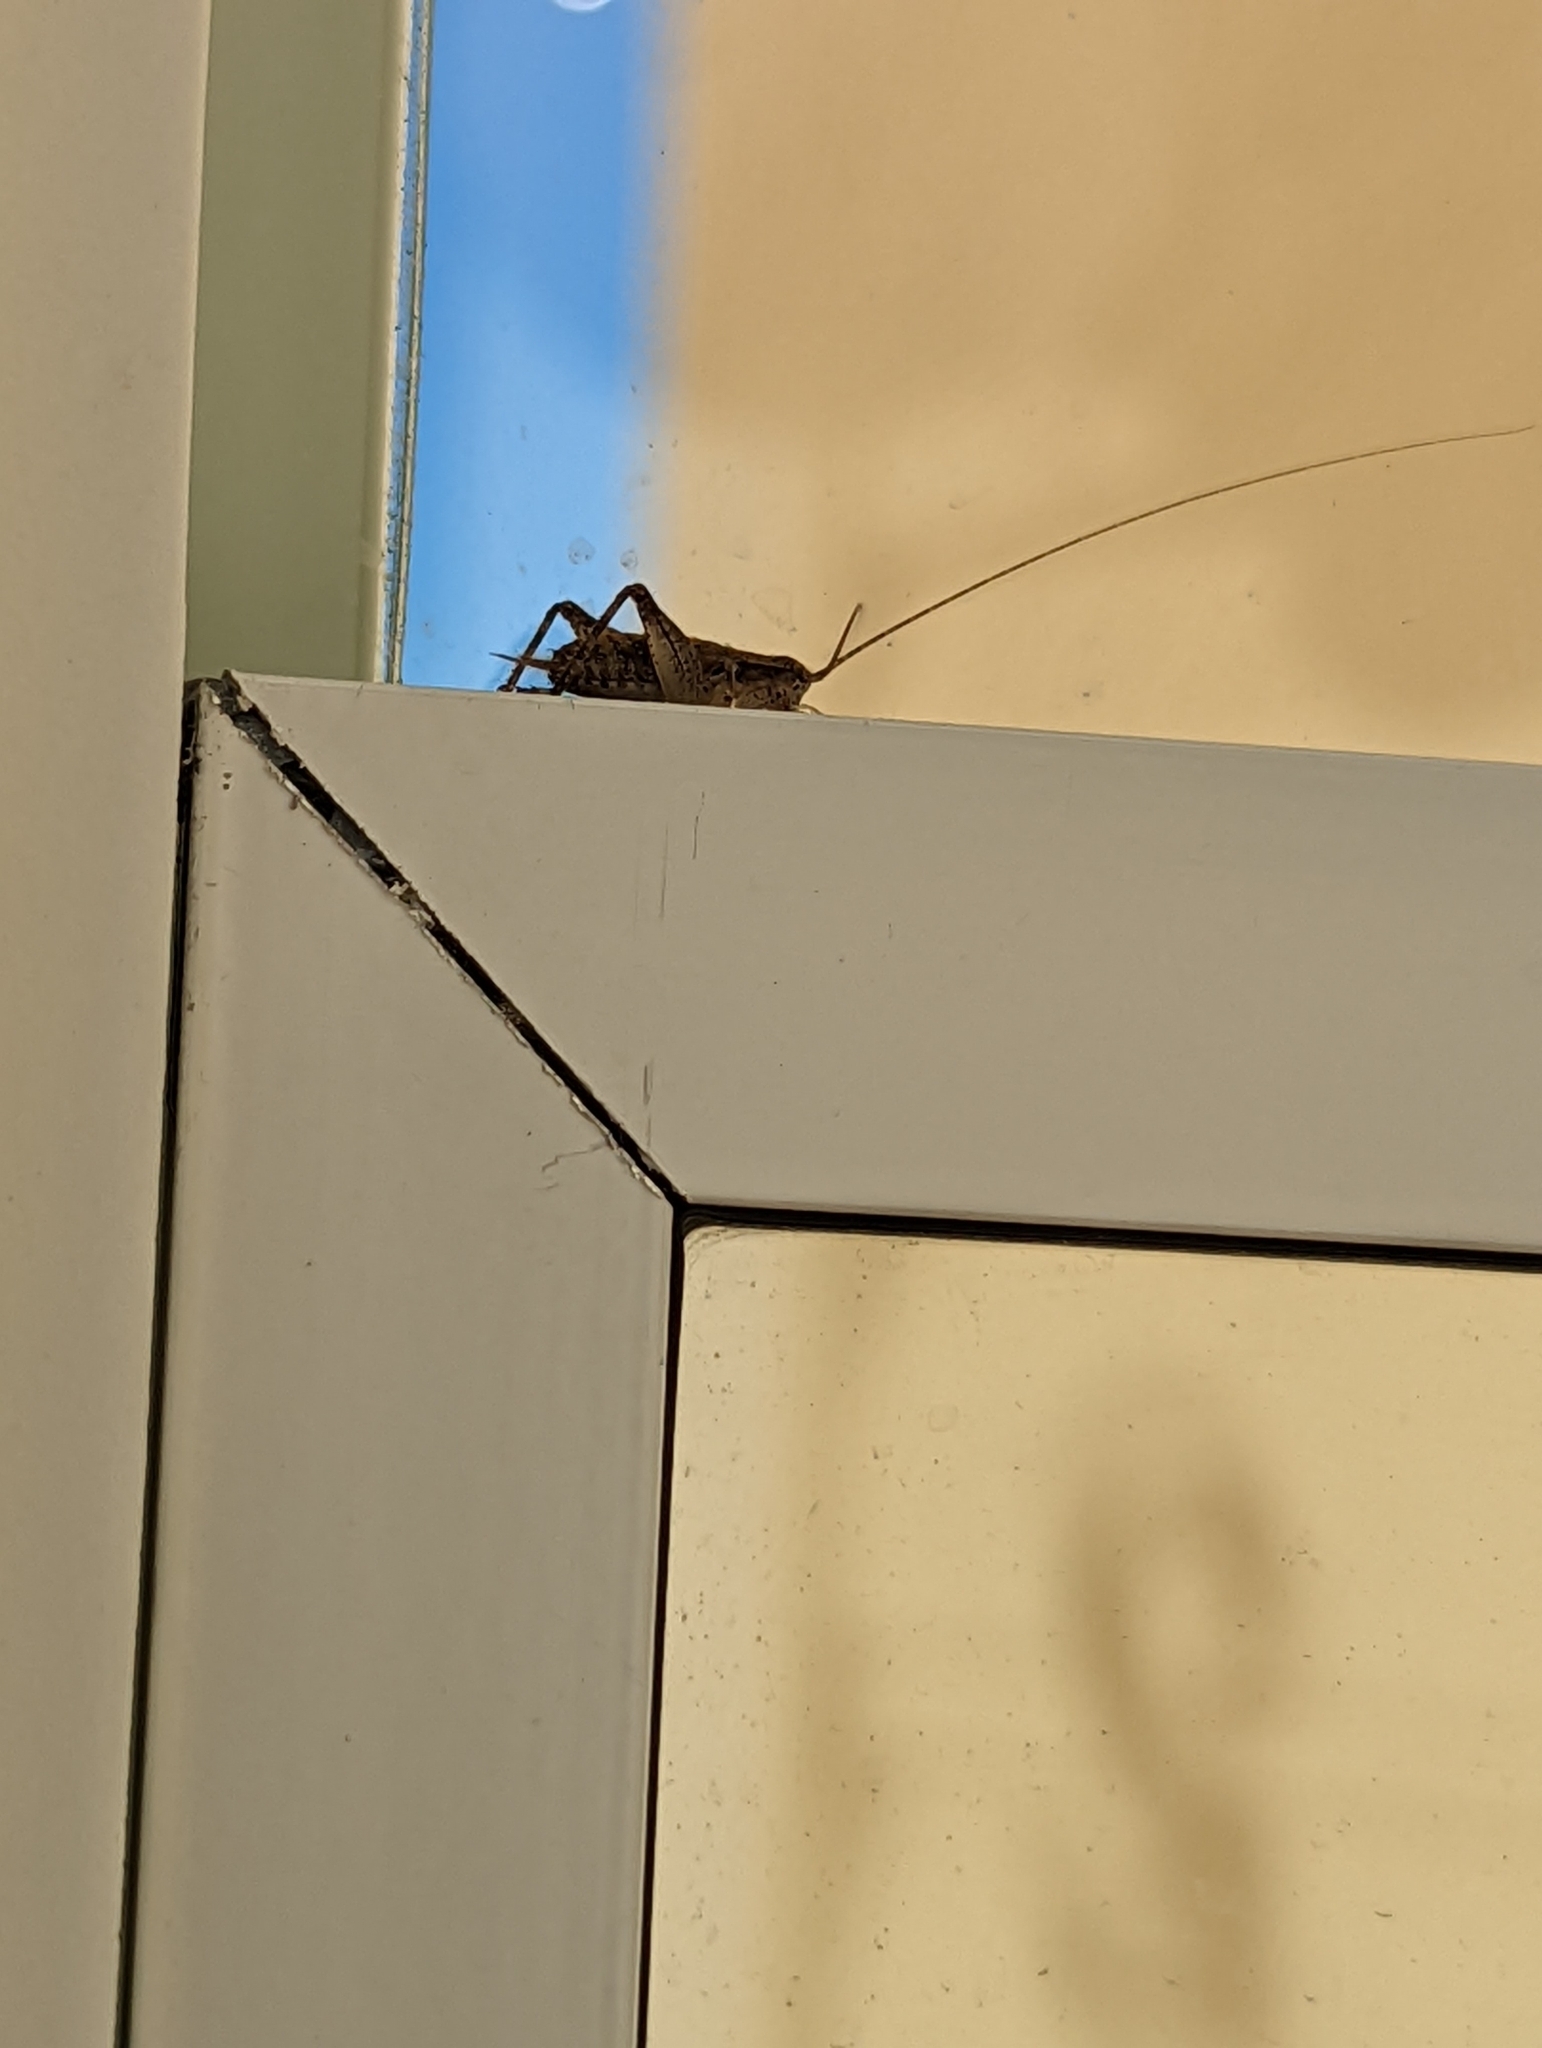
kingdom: Animalia
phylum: Arthropoda
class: Insecta
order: Orthoptera
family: Gryllidae
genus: Hapithus
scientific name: Hapithus saltator
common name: Jumping bush cricket
